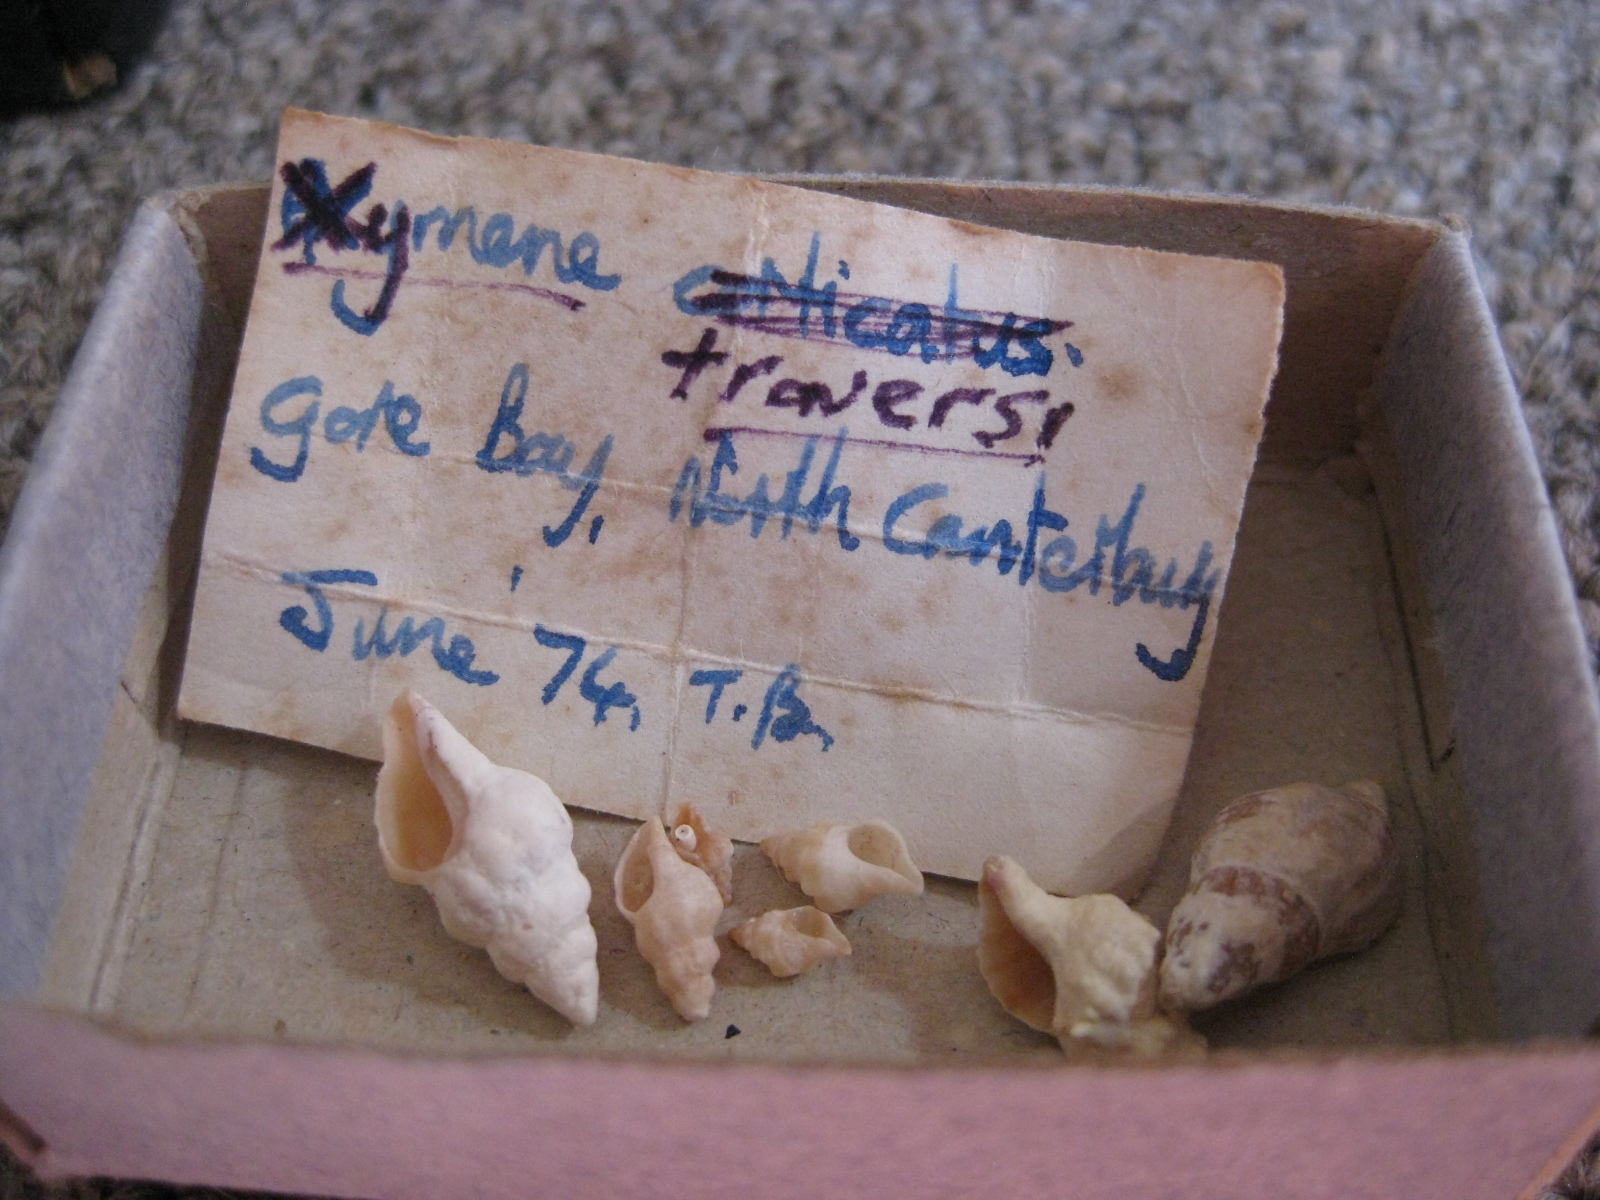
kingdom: Animalia
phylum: Mollusca
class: Gastropoda
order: Neogastropoda
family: Muricidae
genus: Lamellitrophon
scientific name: Lamellitrophon traversi
